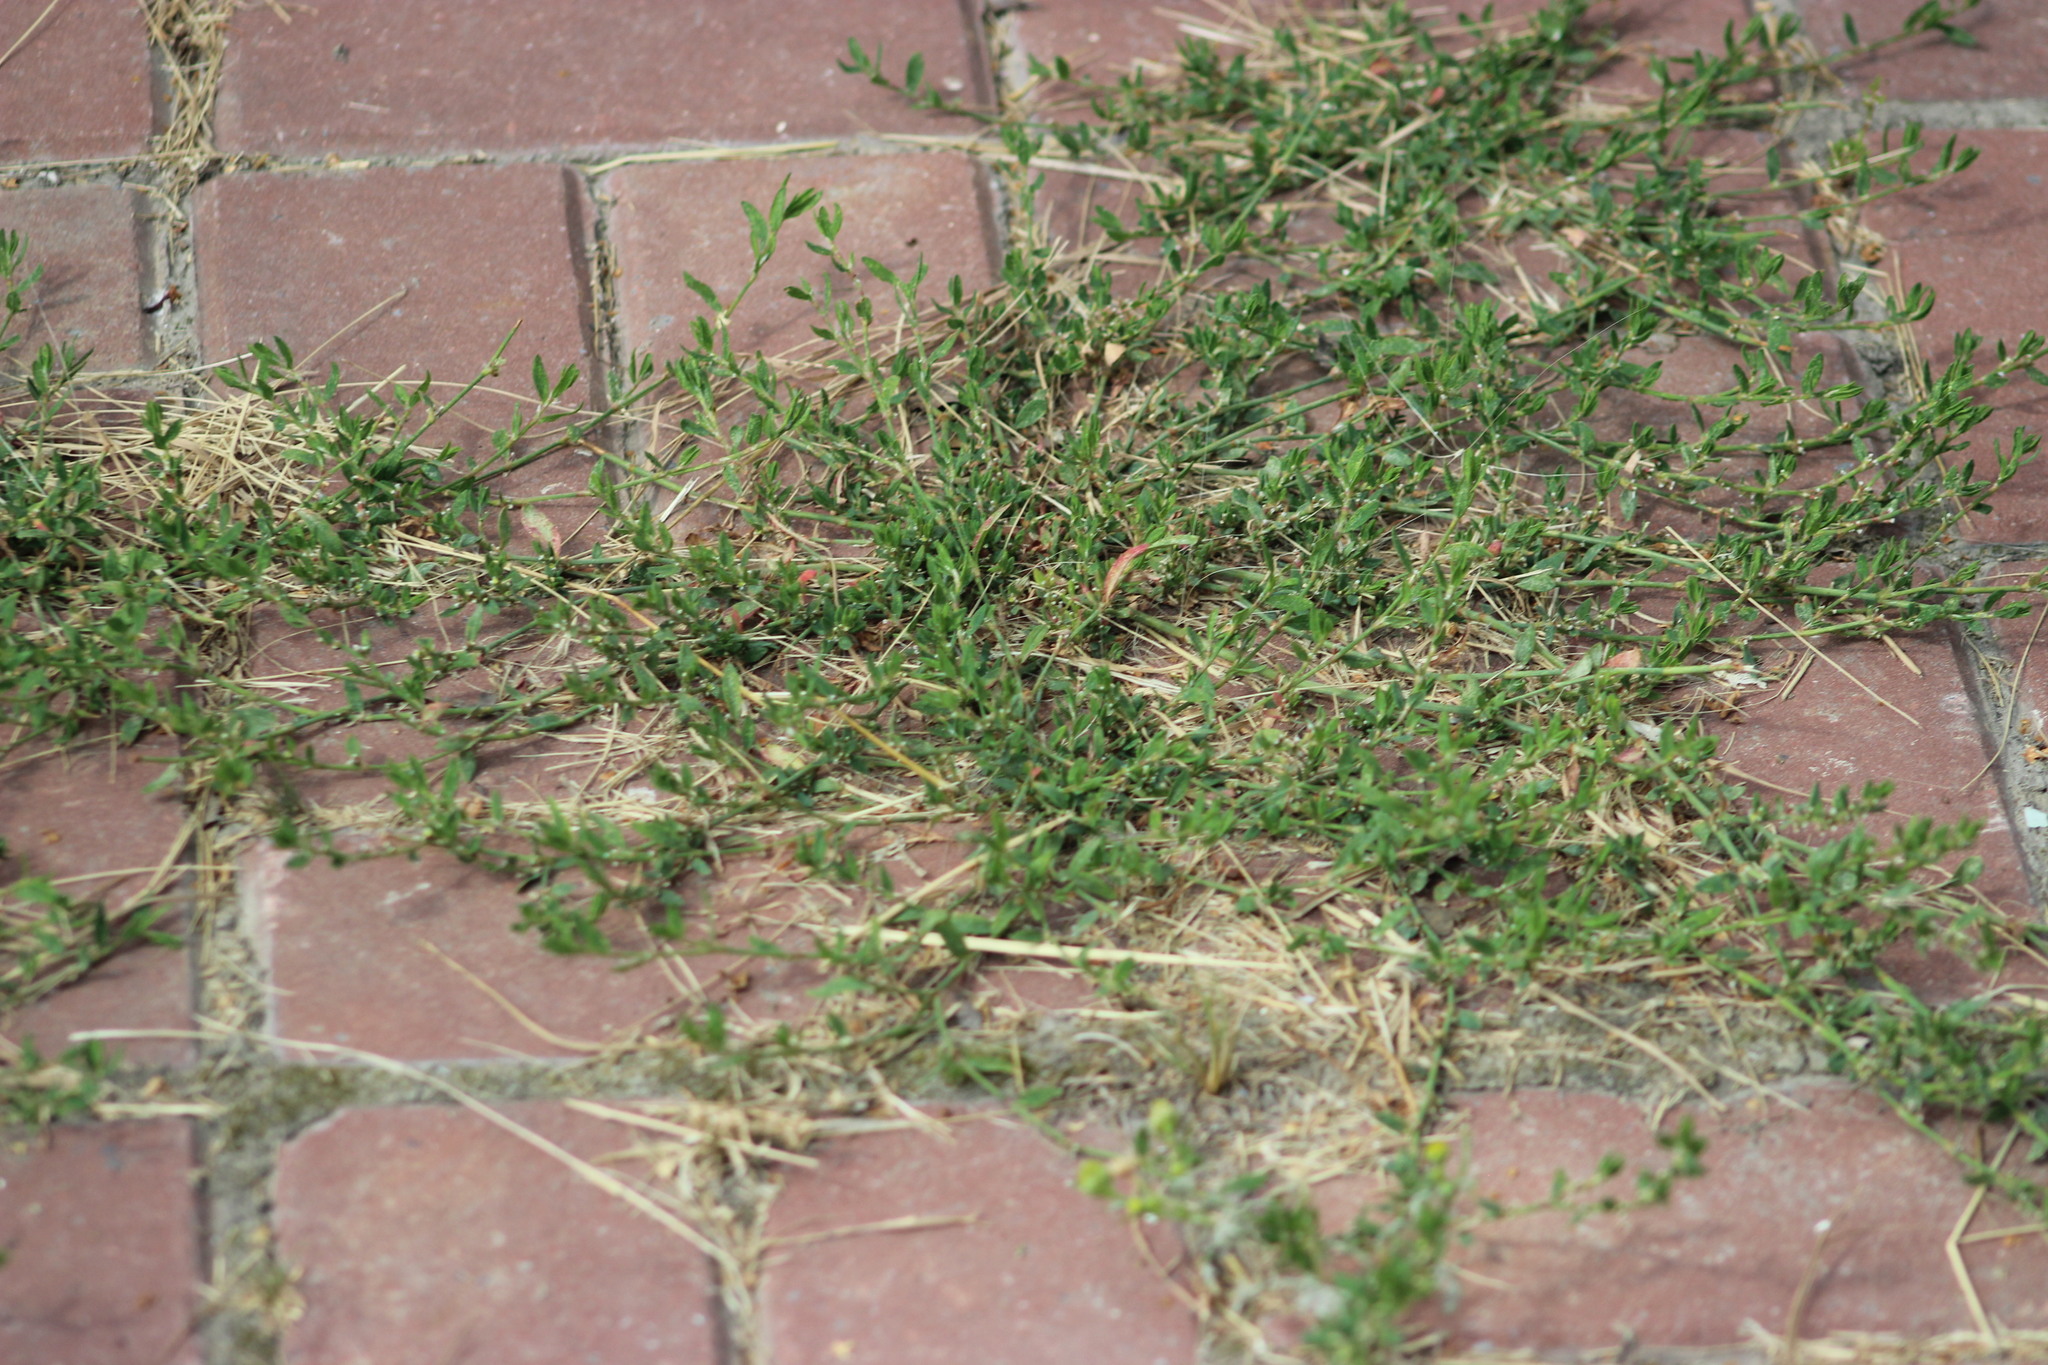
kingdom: Plantae
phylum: Tracheophyta
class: Magnoliopsida
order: Caryophyllales
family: Polygonaceae
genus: Polygonum
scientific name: Polygonum aviculare
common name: Prostrate knotweed
